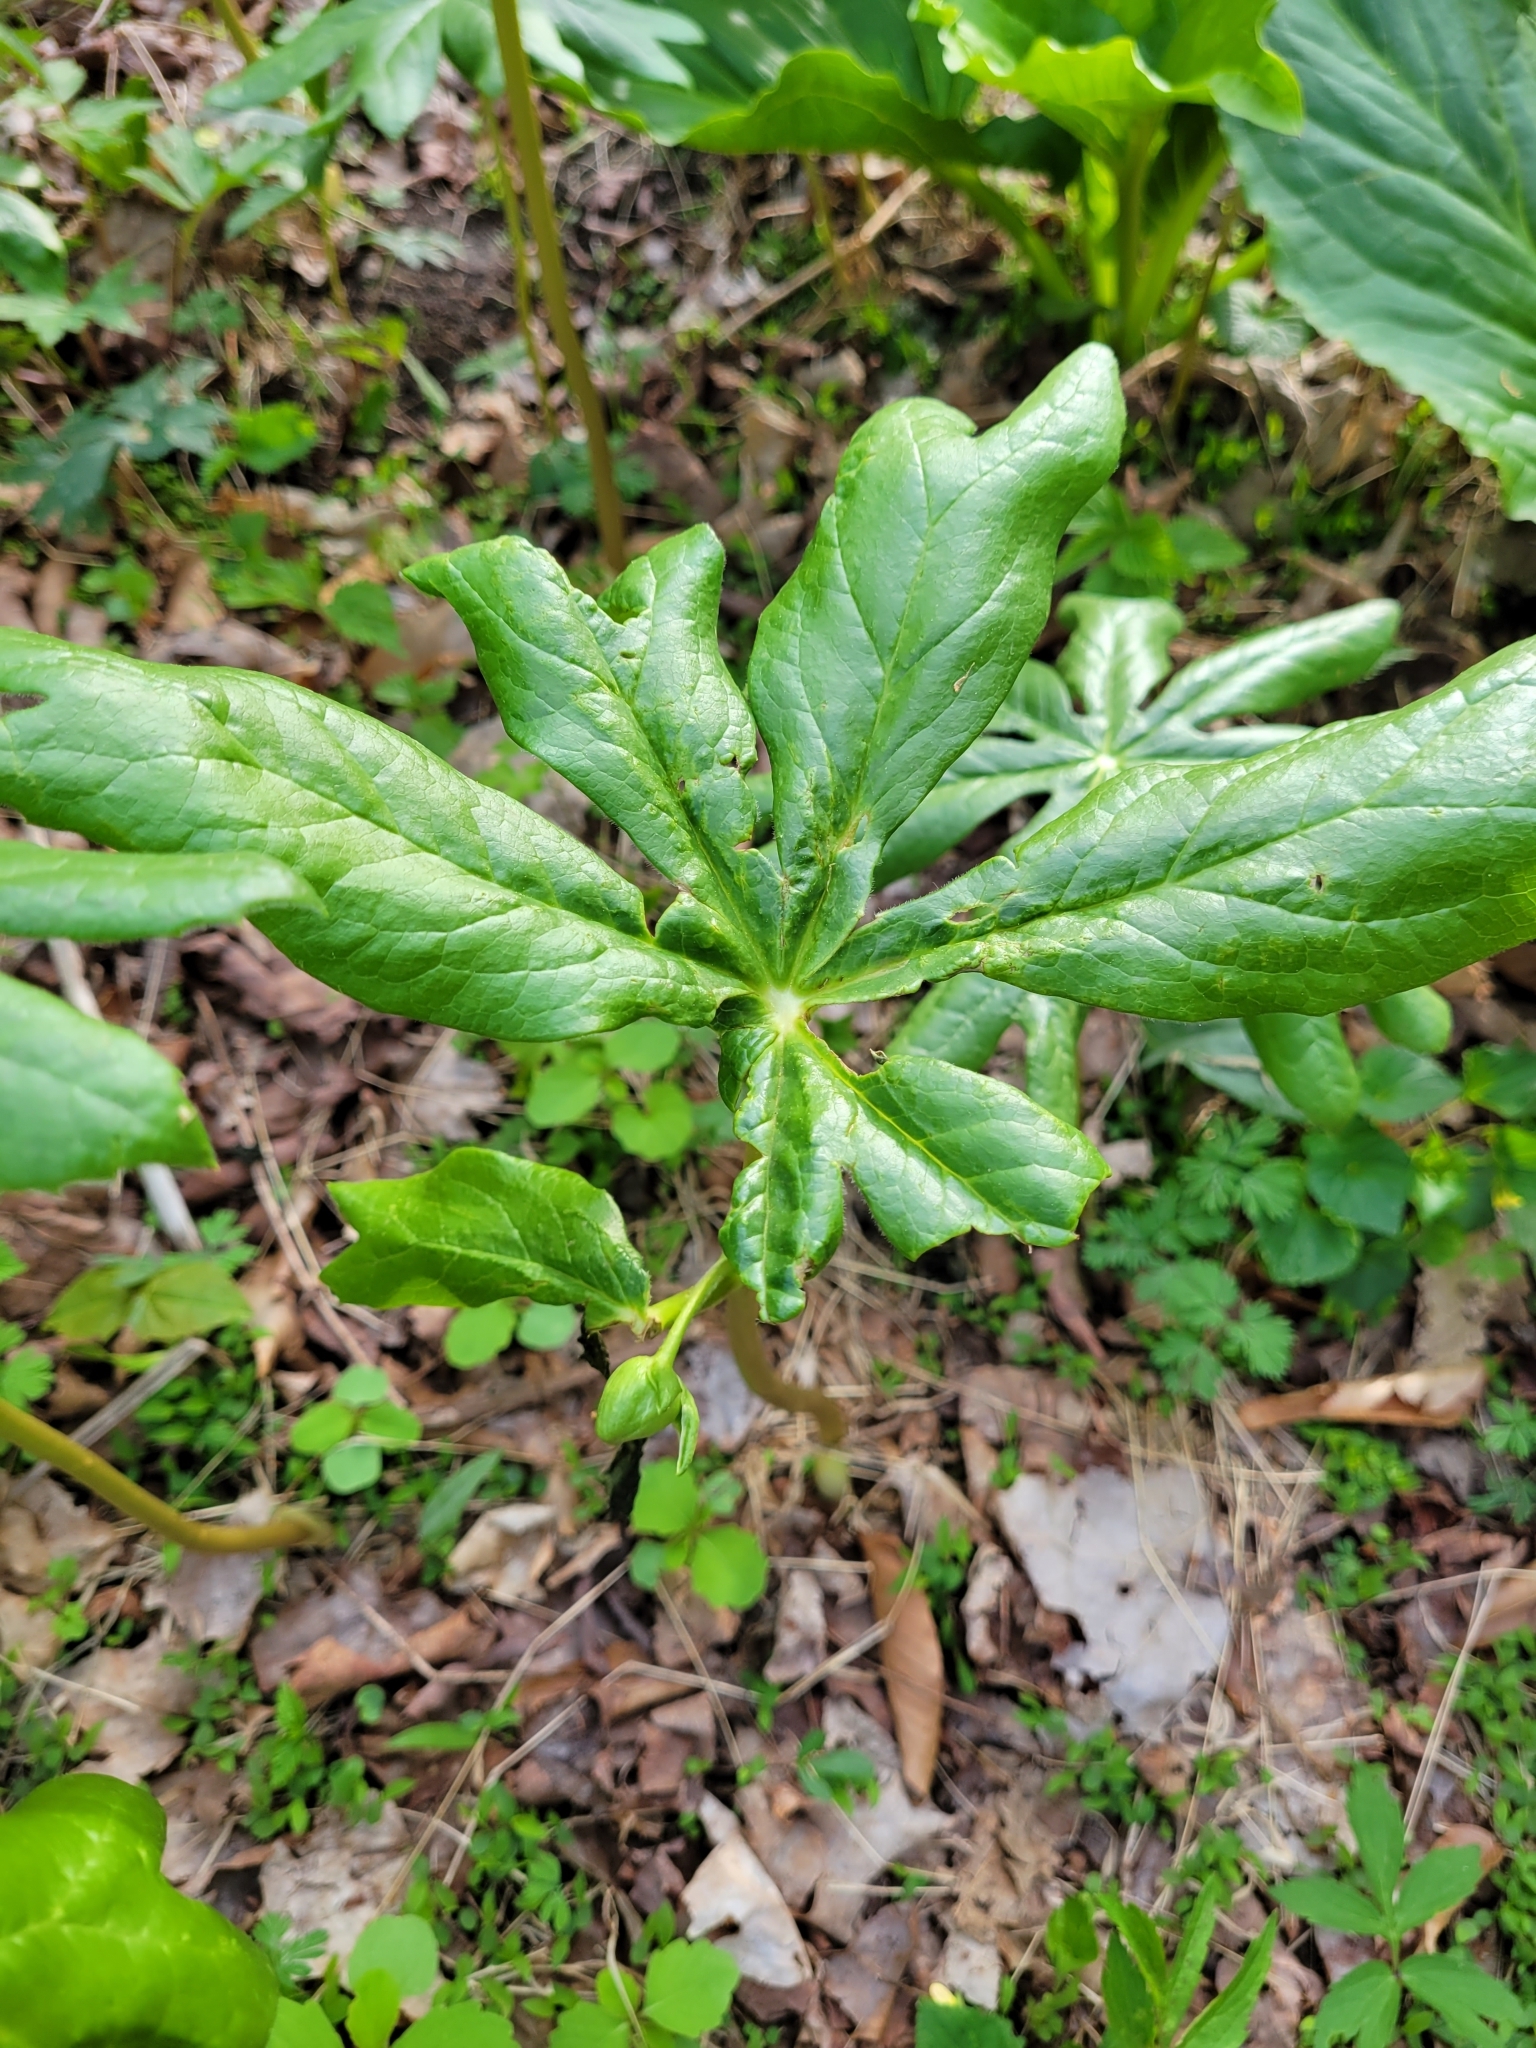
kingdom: Plantae
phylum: Tracheophyta
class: Magnoliopsida
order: Ranunculales
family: Berberidaceae
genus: Podophyllum
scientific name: Podophyllum peltatum
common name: Wild mandrake
